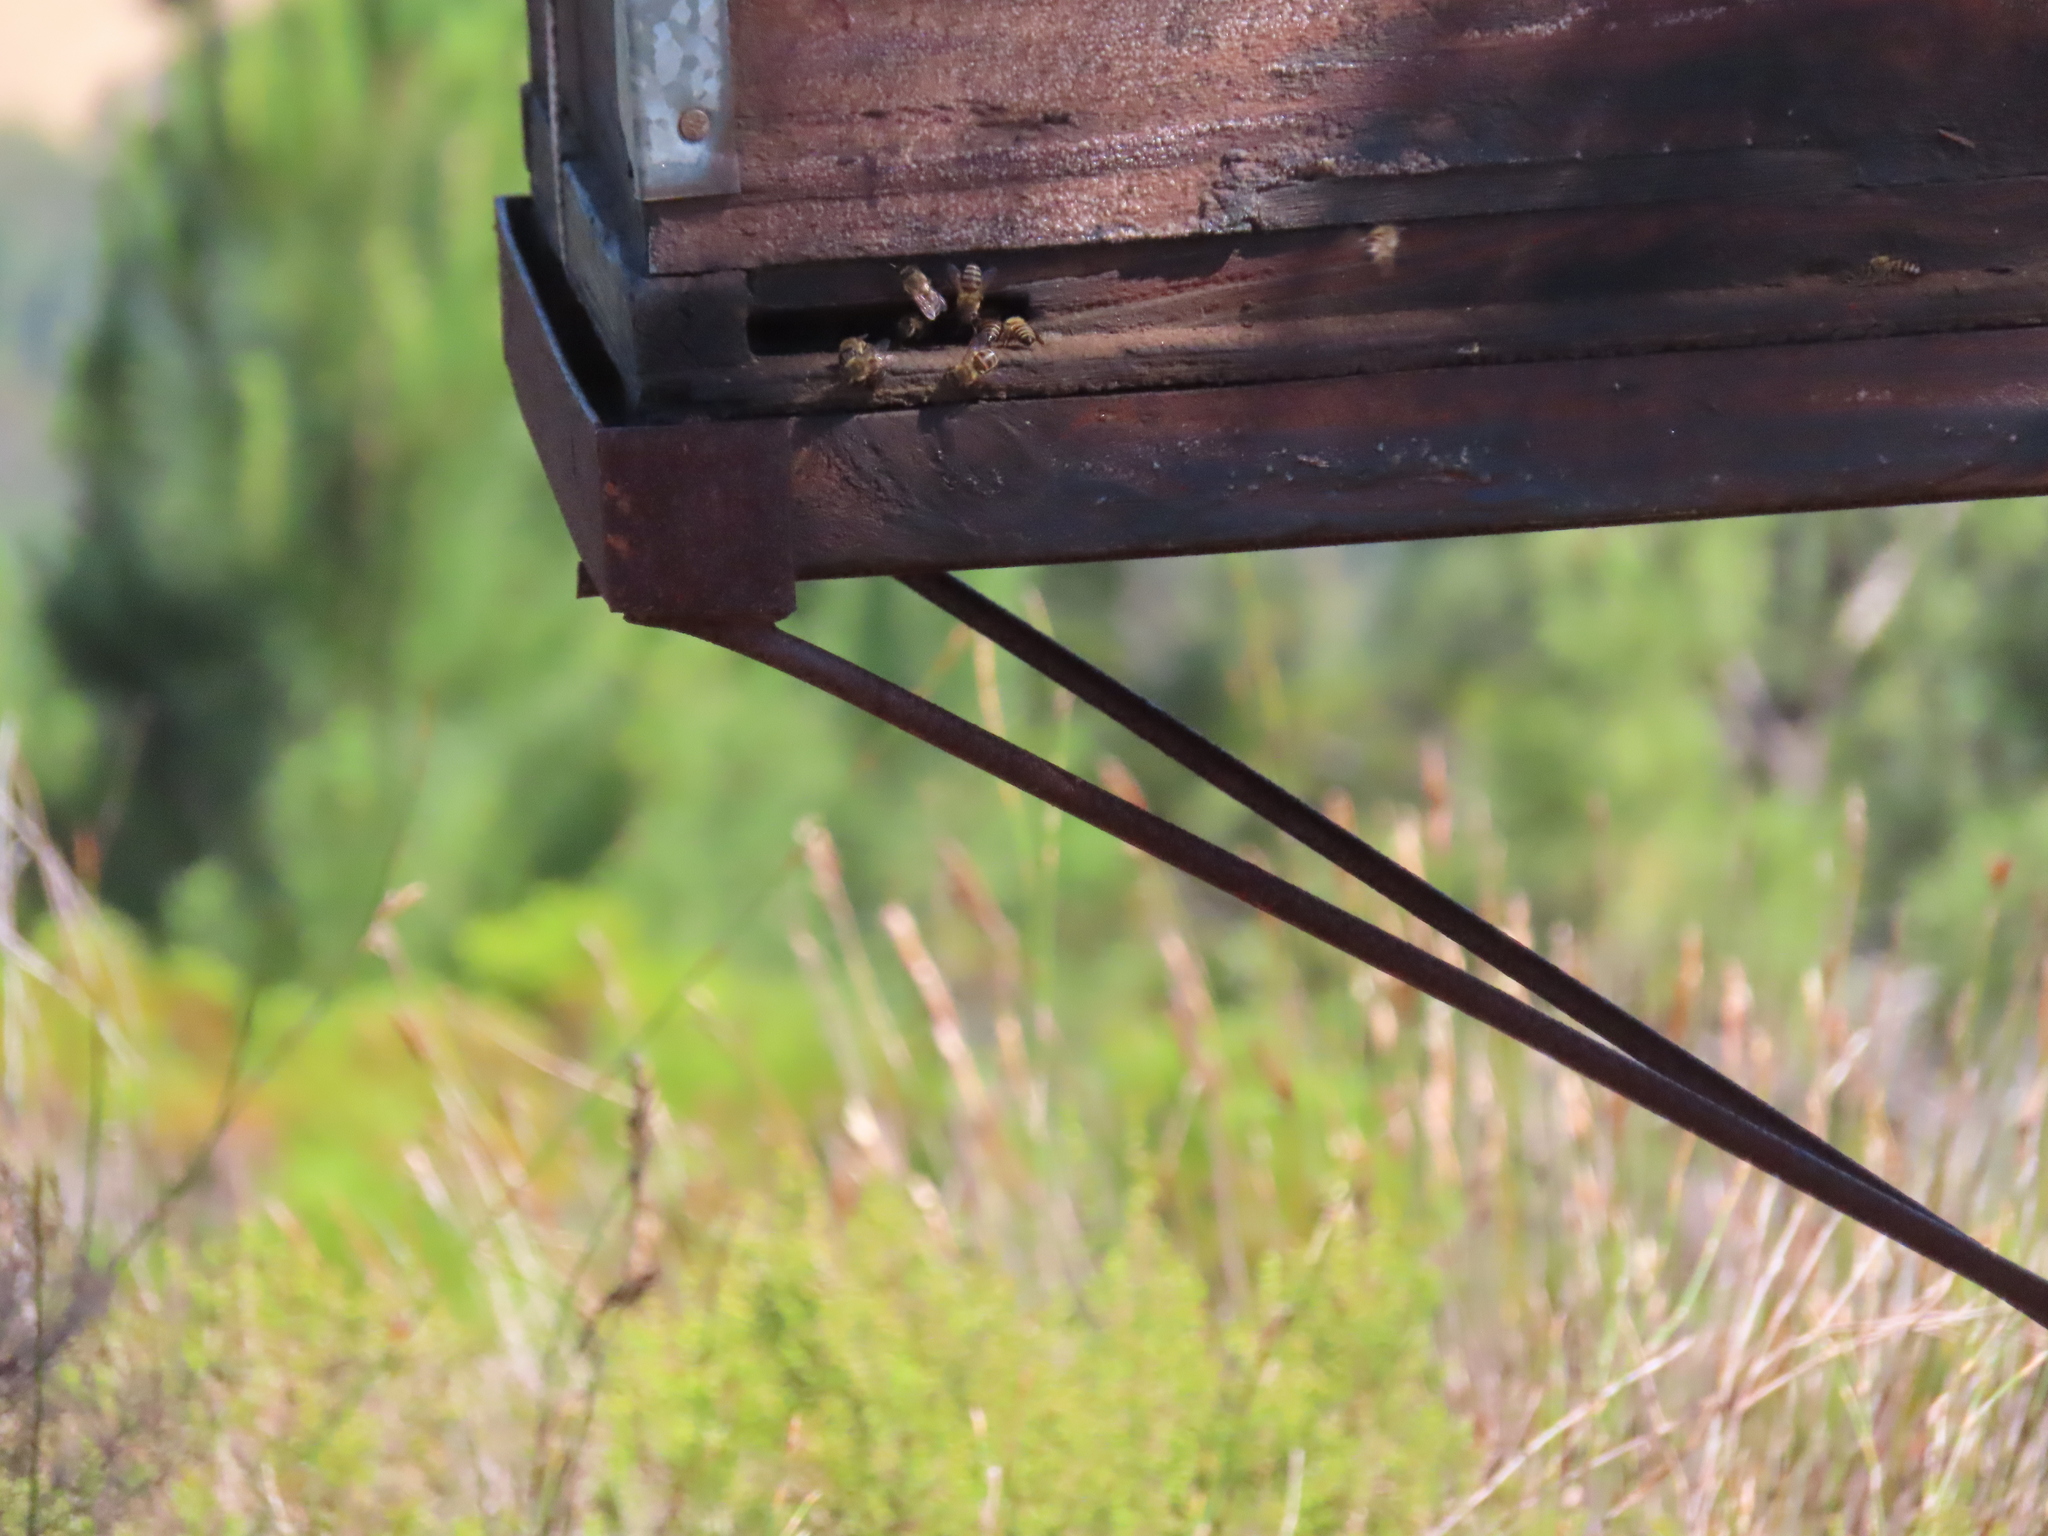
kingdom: Animalia
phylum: Arthropoda
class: Insecta
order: Hymenoptera
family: Apidae
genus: Apis
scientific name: Apis mellifera
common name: Honey bee
